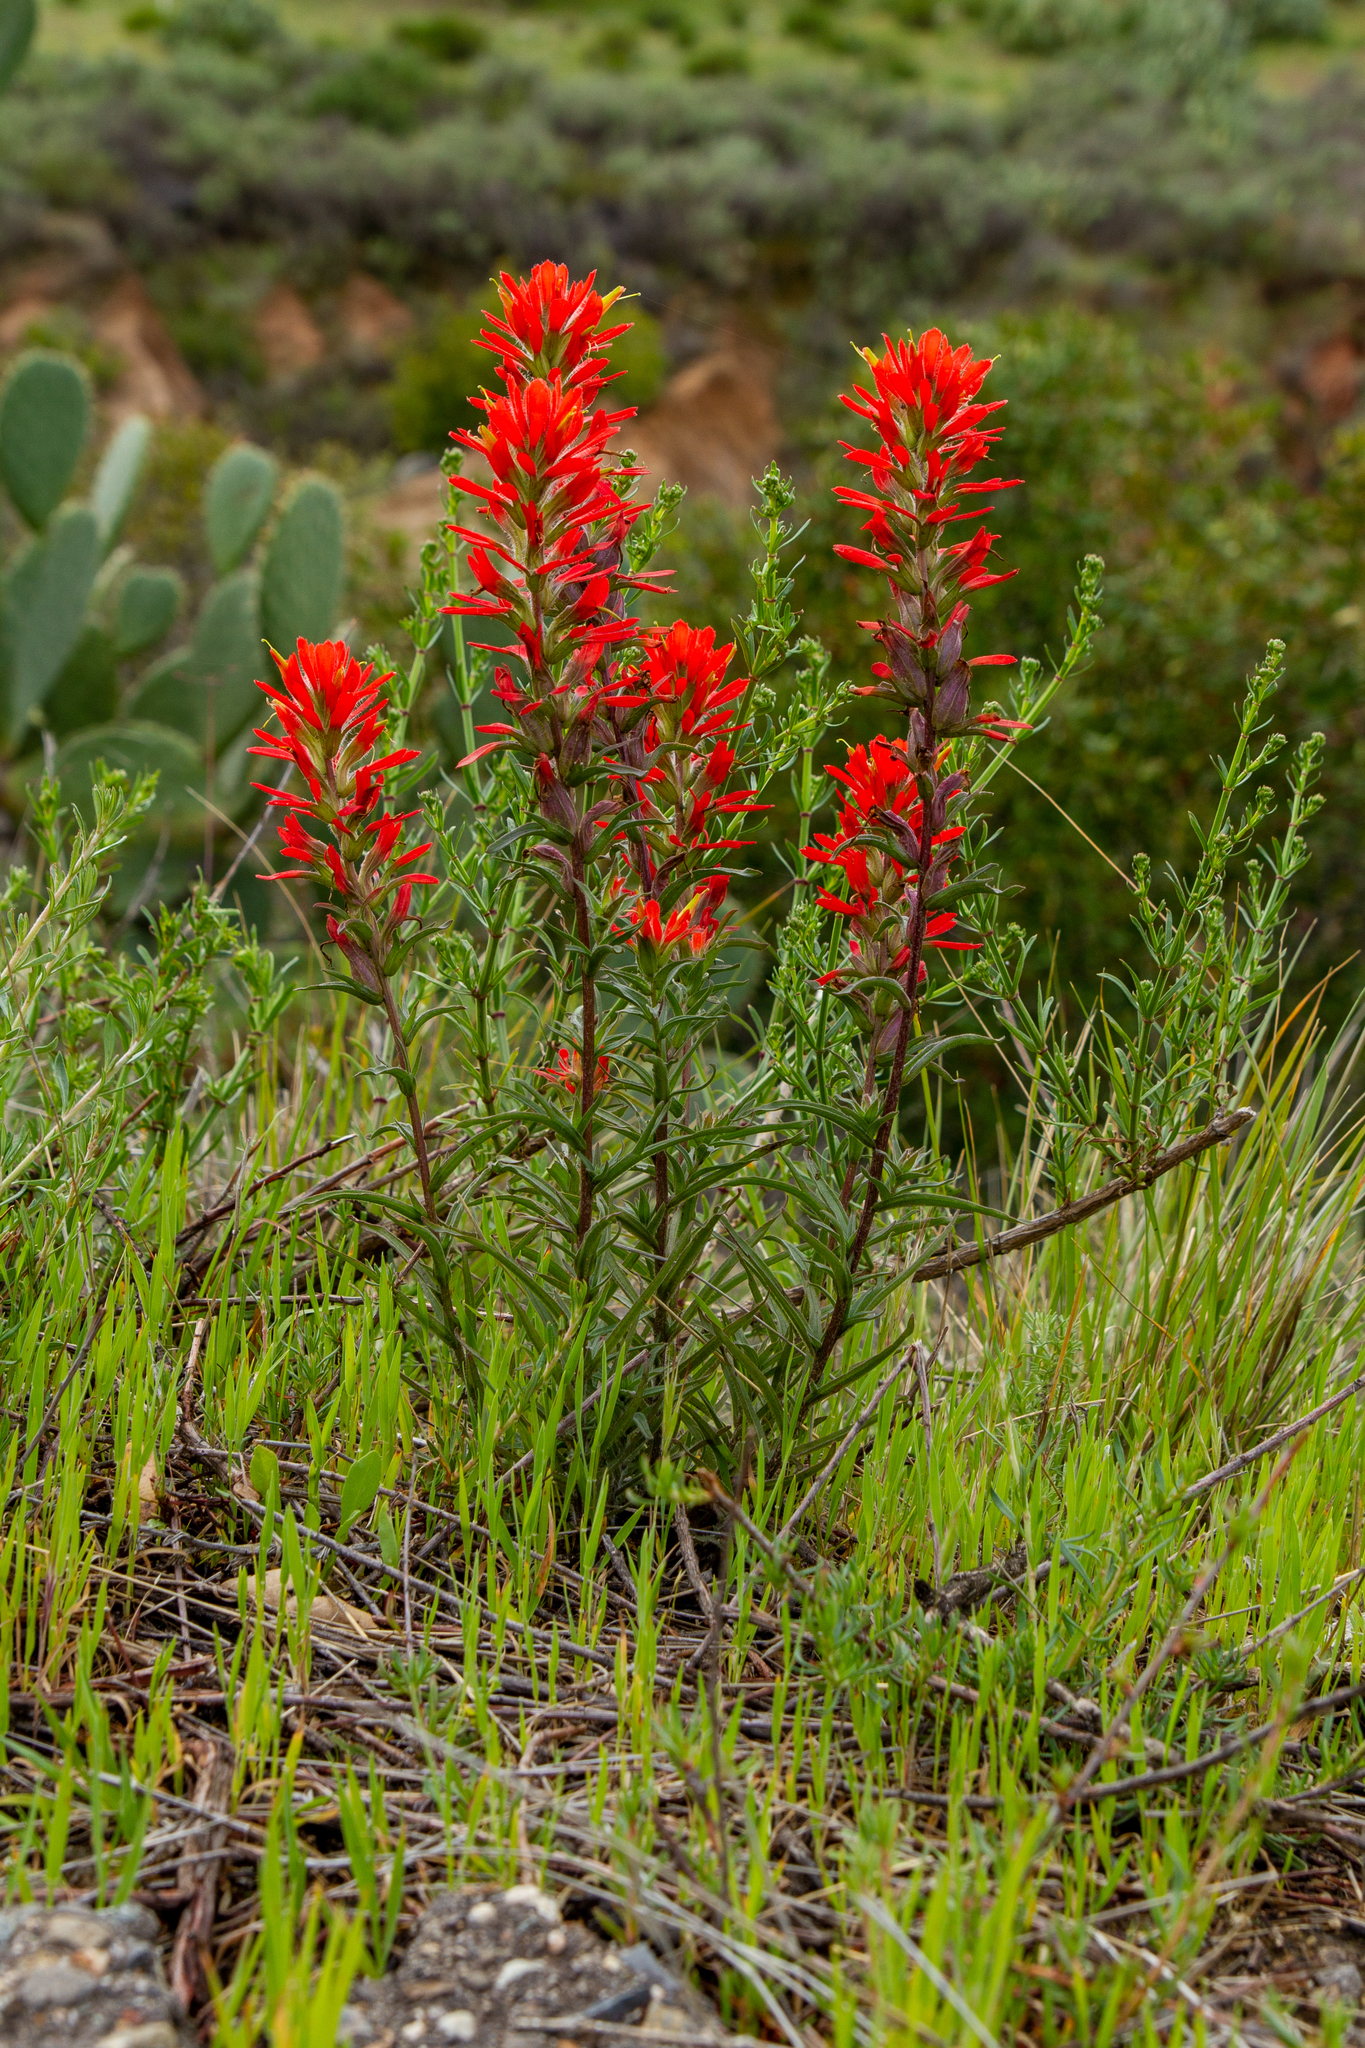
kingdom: Plantae
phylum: Tracheophyta
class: Magnoliopsida
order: Lamiales
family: Orobanchaceae
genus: Castilleja
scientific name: Castilleja affinis
